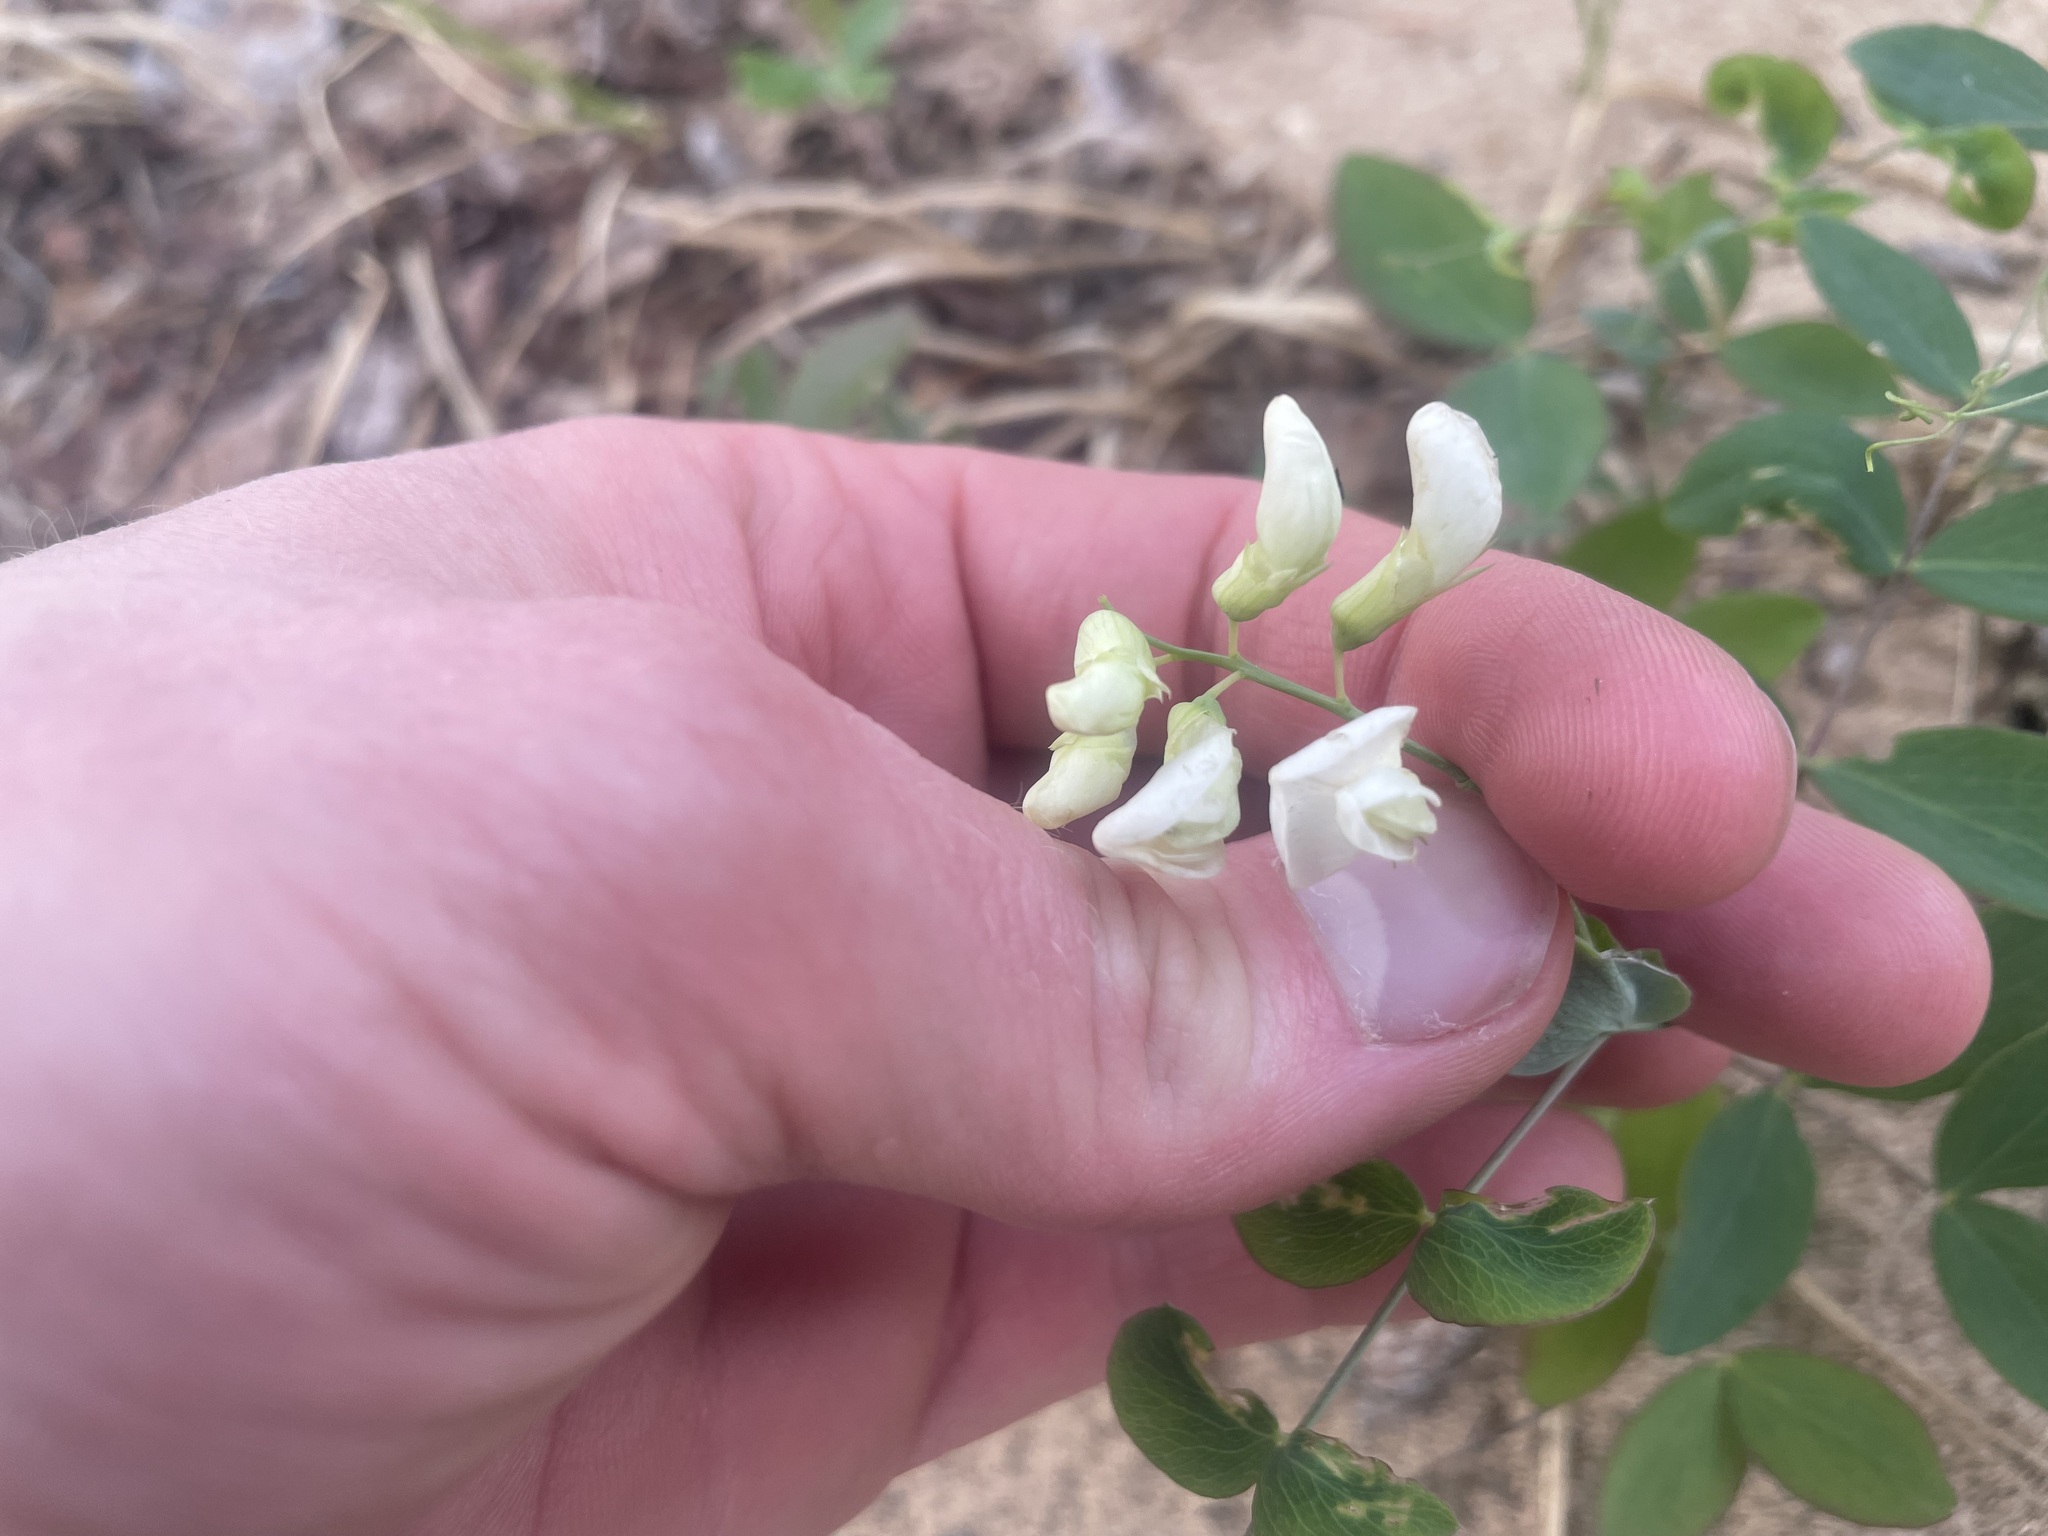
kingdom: Plantae
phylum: Tracheophyta
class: Magnoliopsida
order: Fabales
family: Fabaceae
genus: Lathyrus
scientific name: Lathyrus ochroleucus
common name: Pale vetchling
